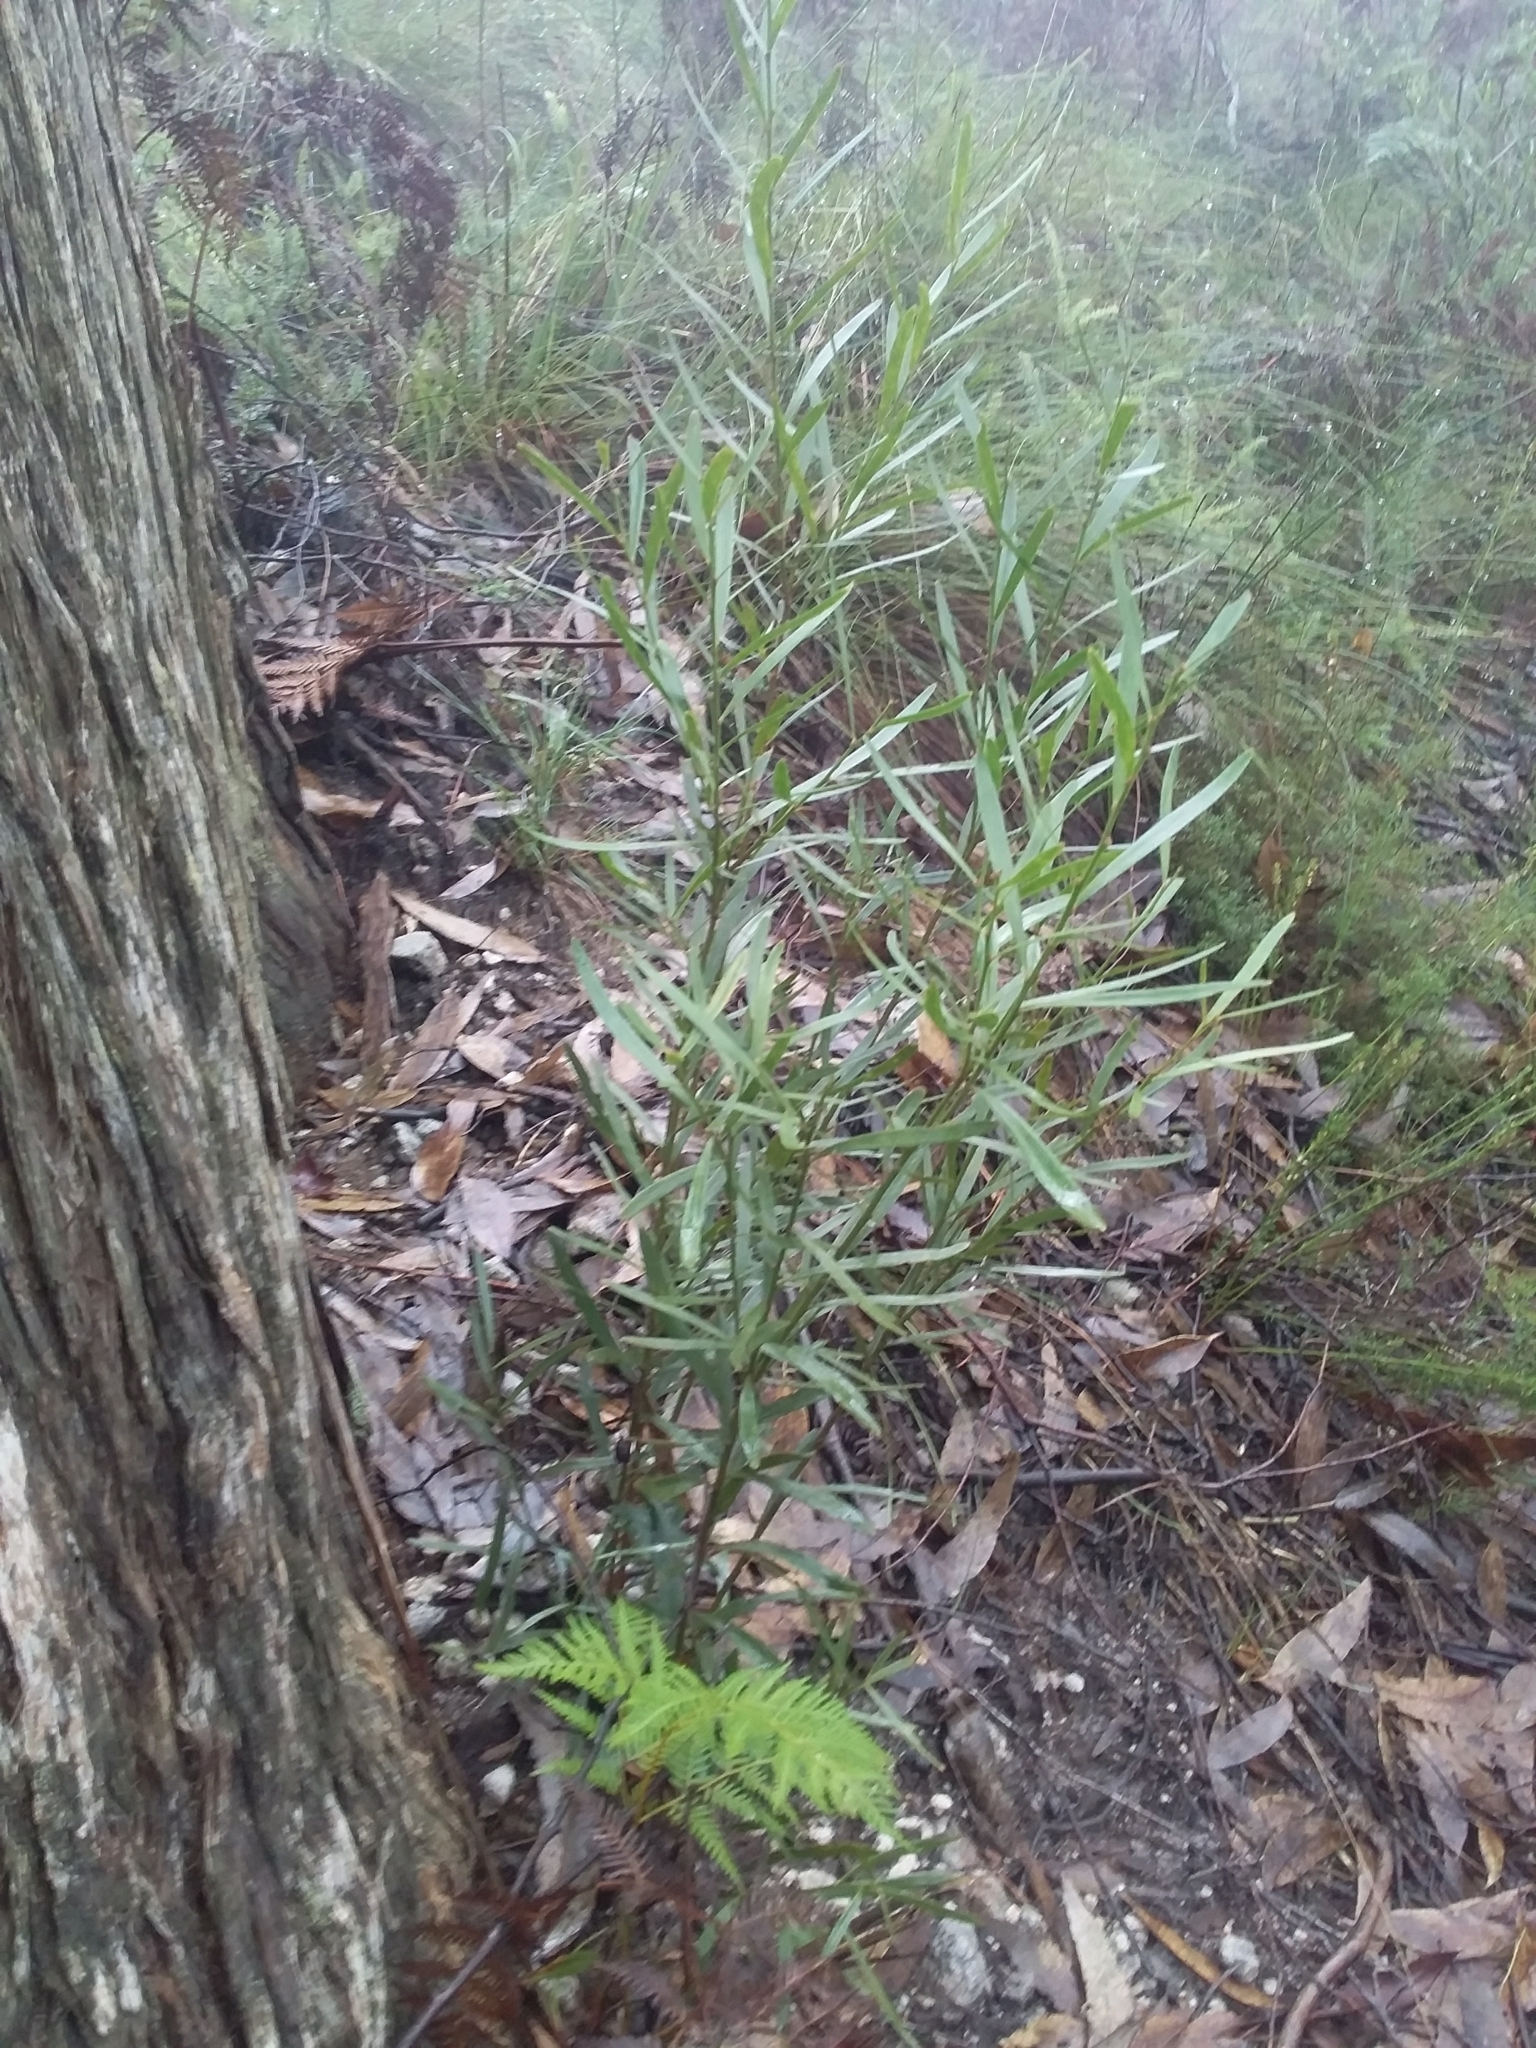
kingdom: Plantae
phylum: Tracheophyta
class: Magnoliopsida
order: Fabales
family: Fabaceae
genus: Daviesia
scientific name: Daviesia leptophylla
